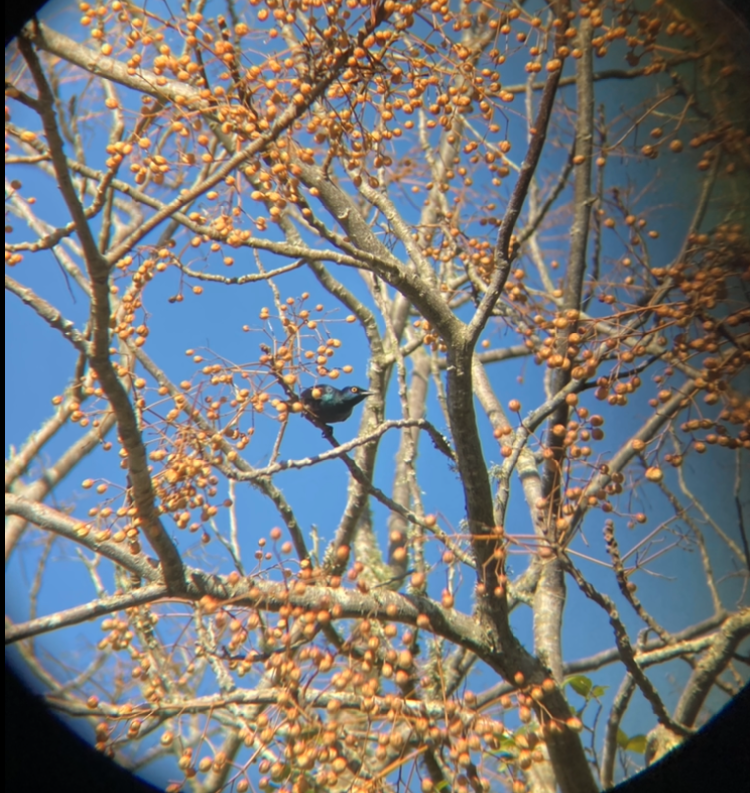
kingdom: Animalia
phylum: Chordata
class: Aves
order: Passeriformes
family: Sturnidae
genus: Notopholia
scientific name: Notopholia corrusca
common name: Black-bellied starling
